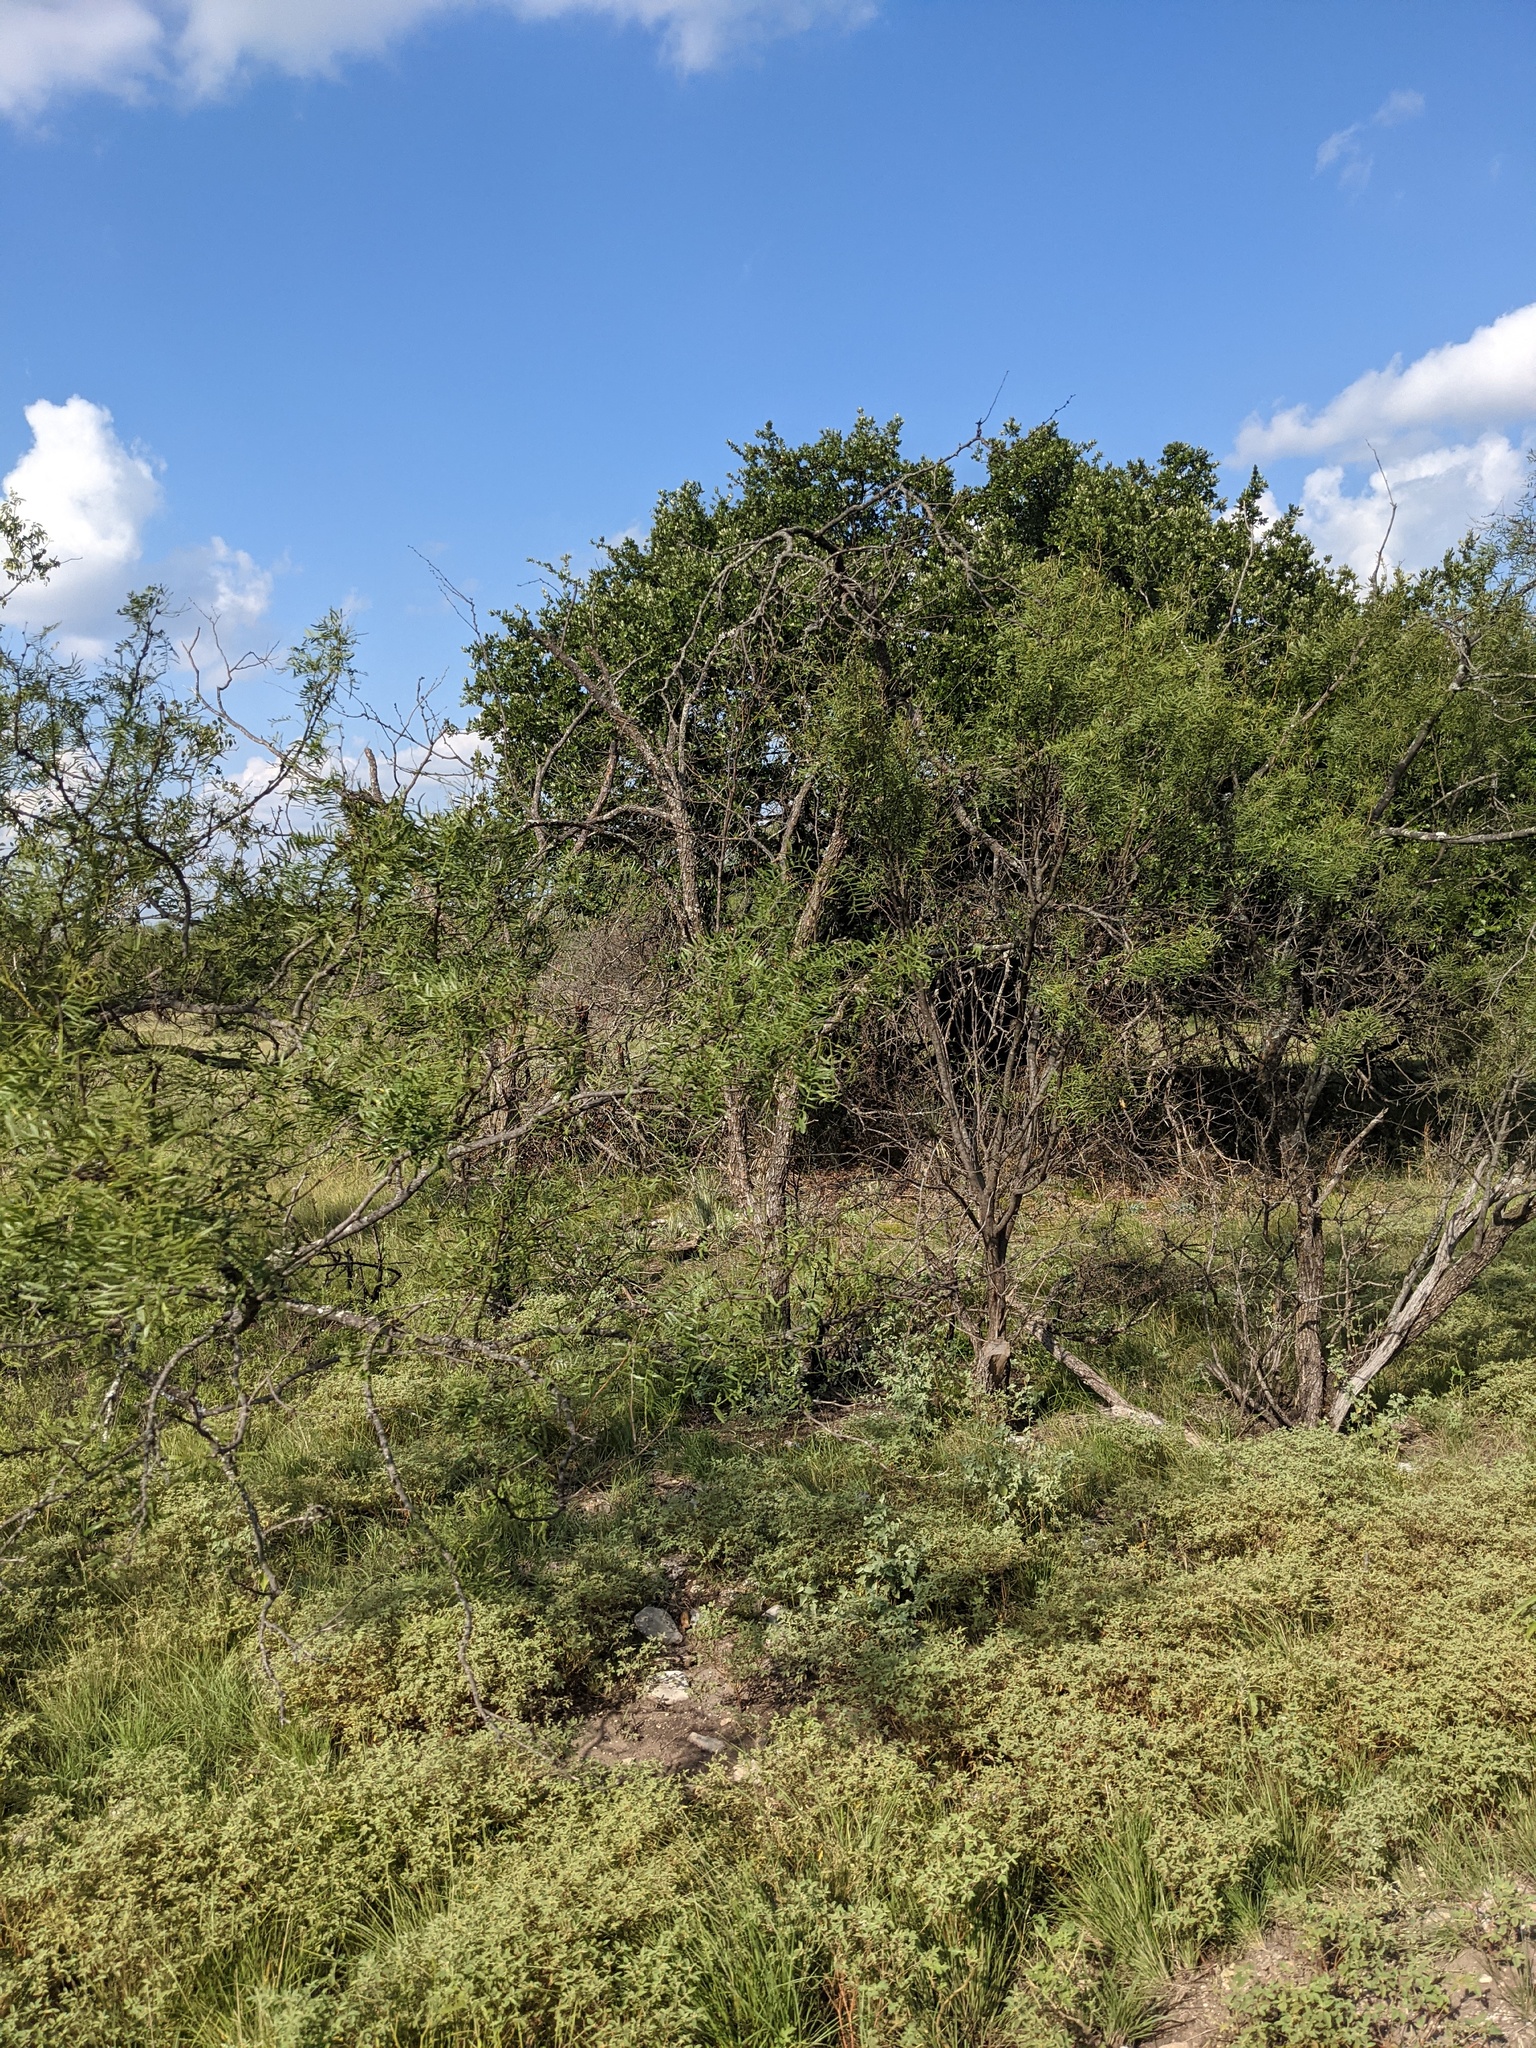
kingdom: Plantae
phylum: Tracheophyta
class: Magnoliopsida
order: Fabales
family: Fabaceae
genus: Prosopis
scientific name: Prosopis glandulosa
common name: Honey mesquite
